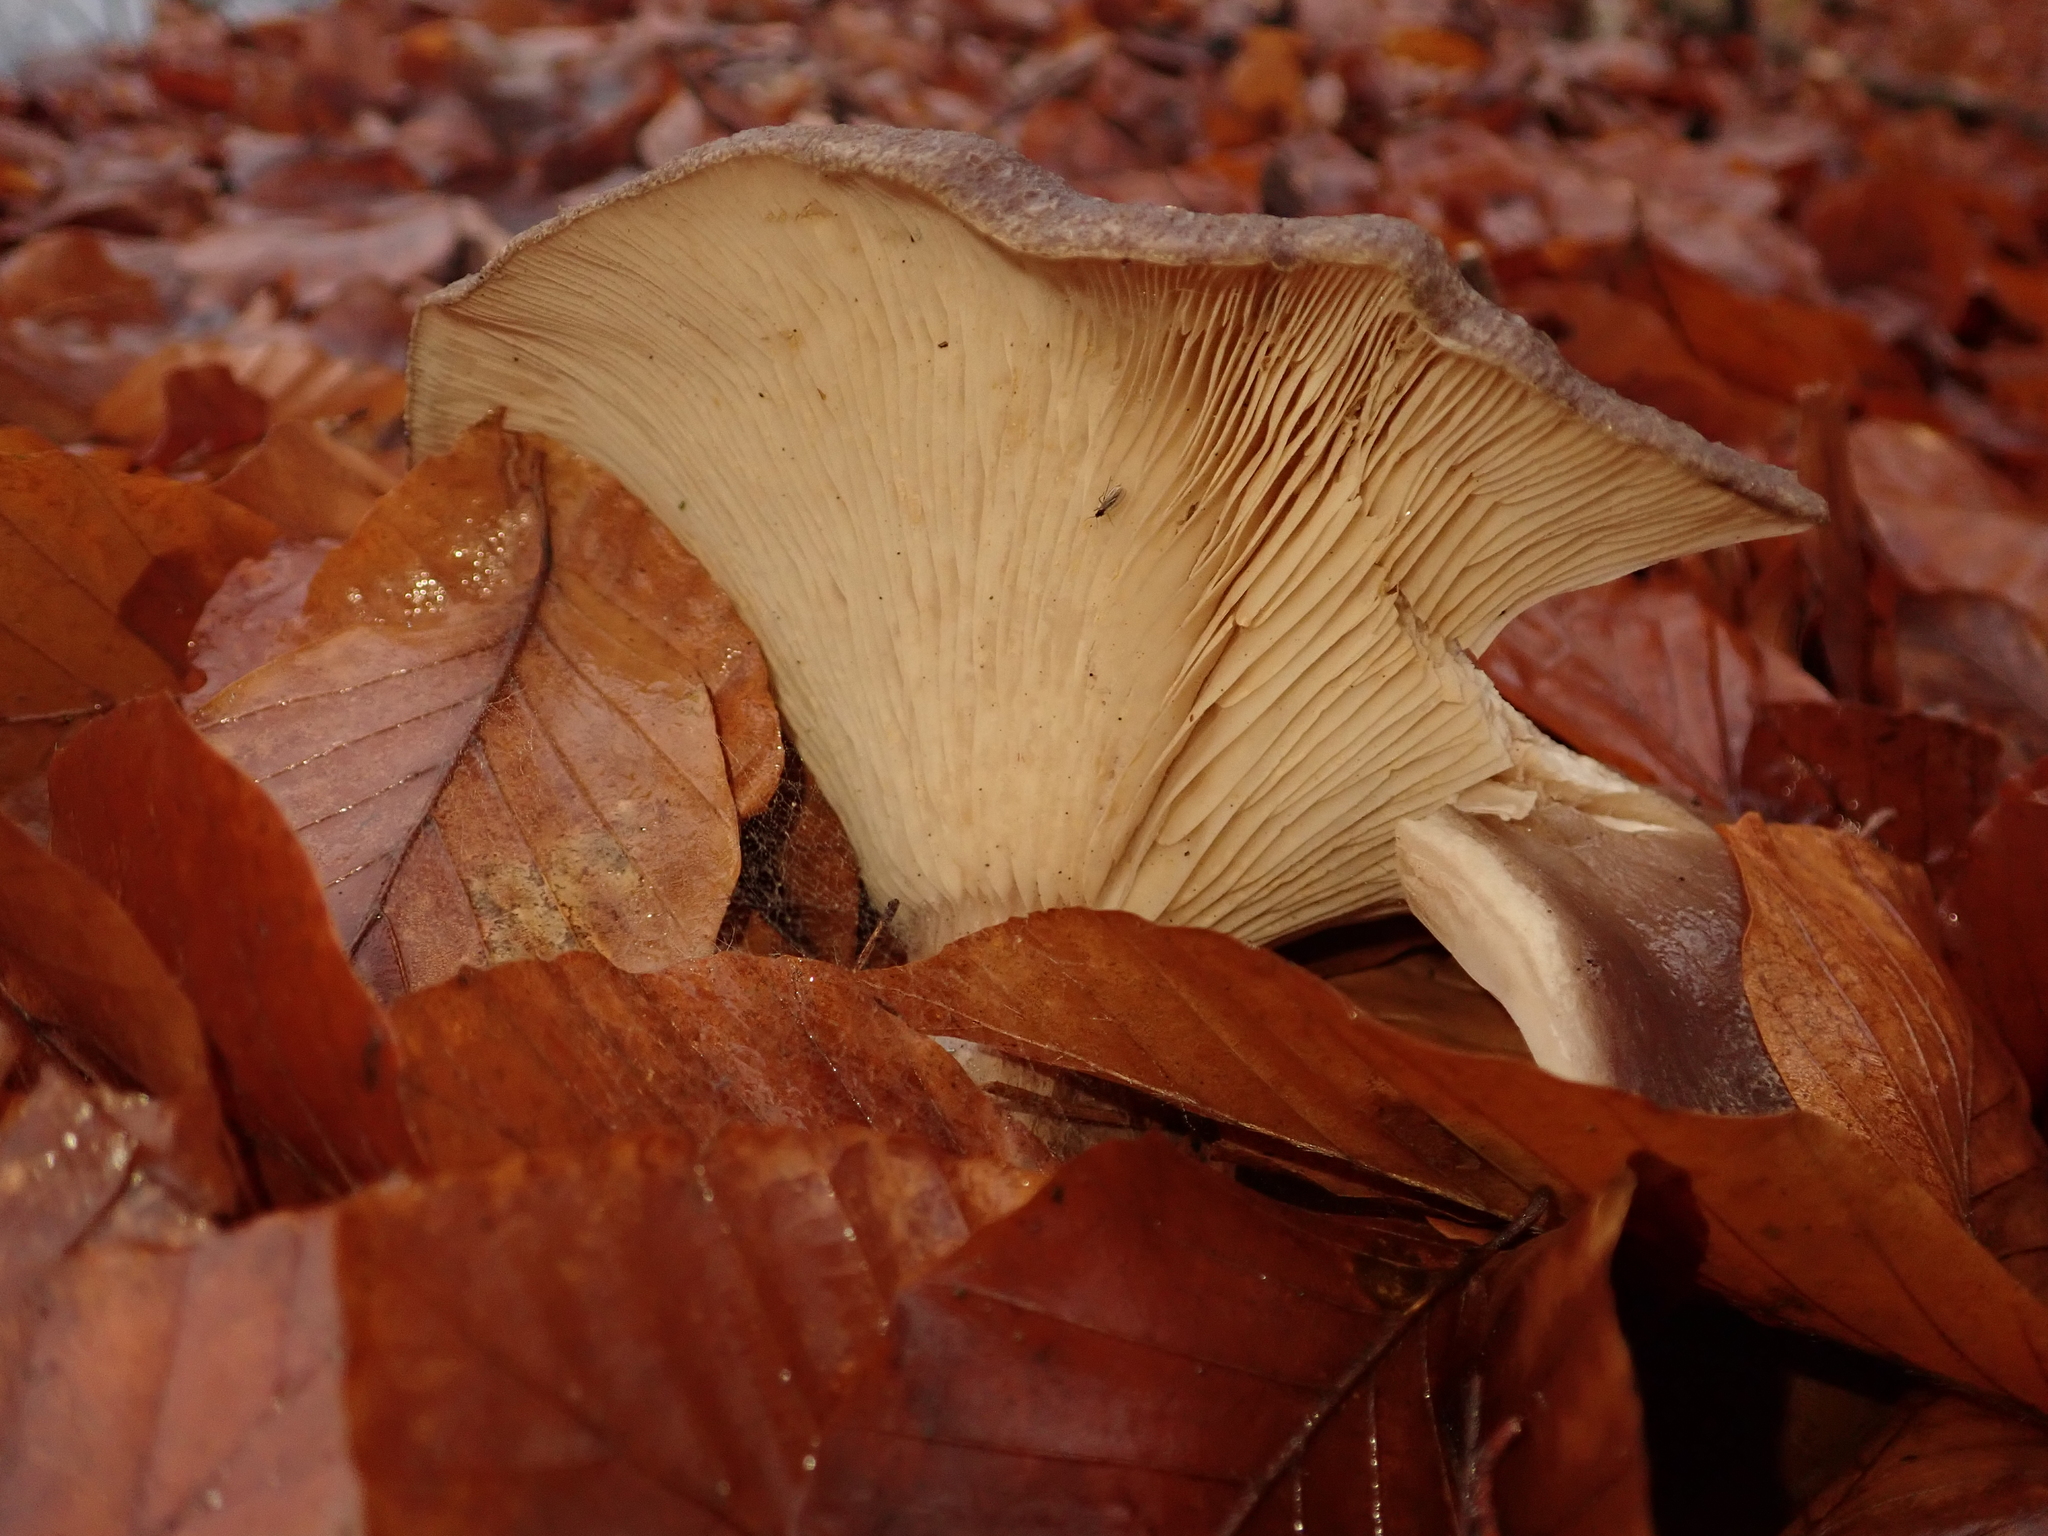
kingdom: Fungi
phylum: Basidiomycota
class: Agaricomycetes
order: Agaricales
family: Tricholomataceae
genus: Clitocybe
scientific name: Clitocybe nebularis
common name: Clouded agaric
